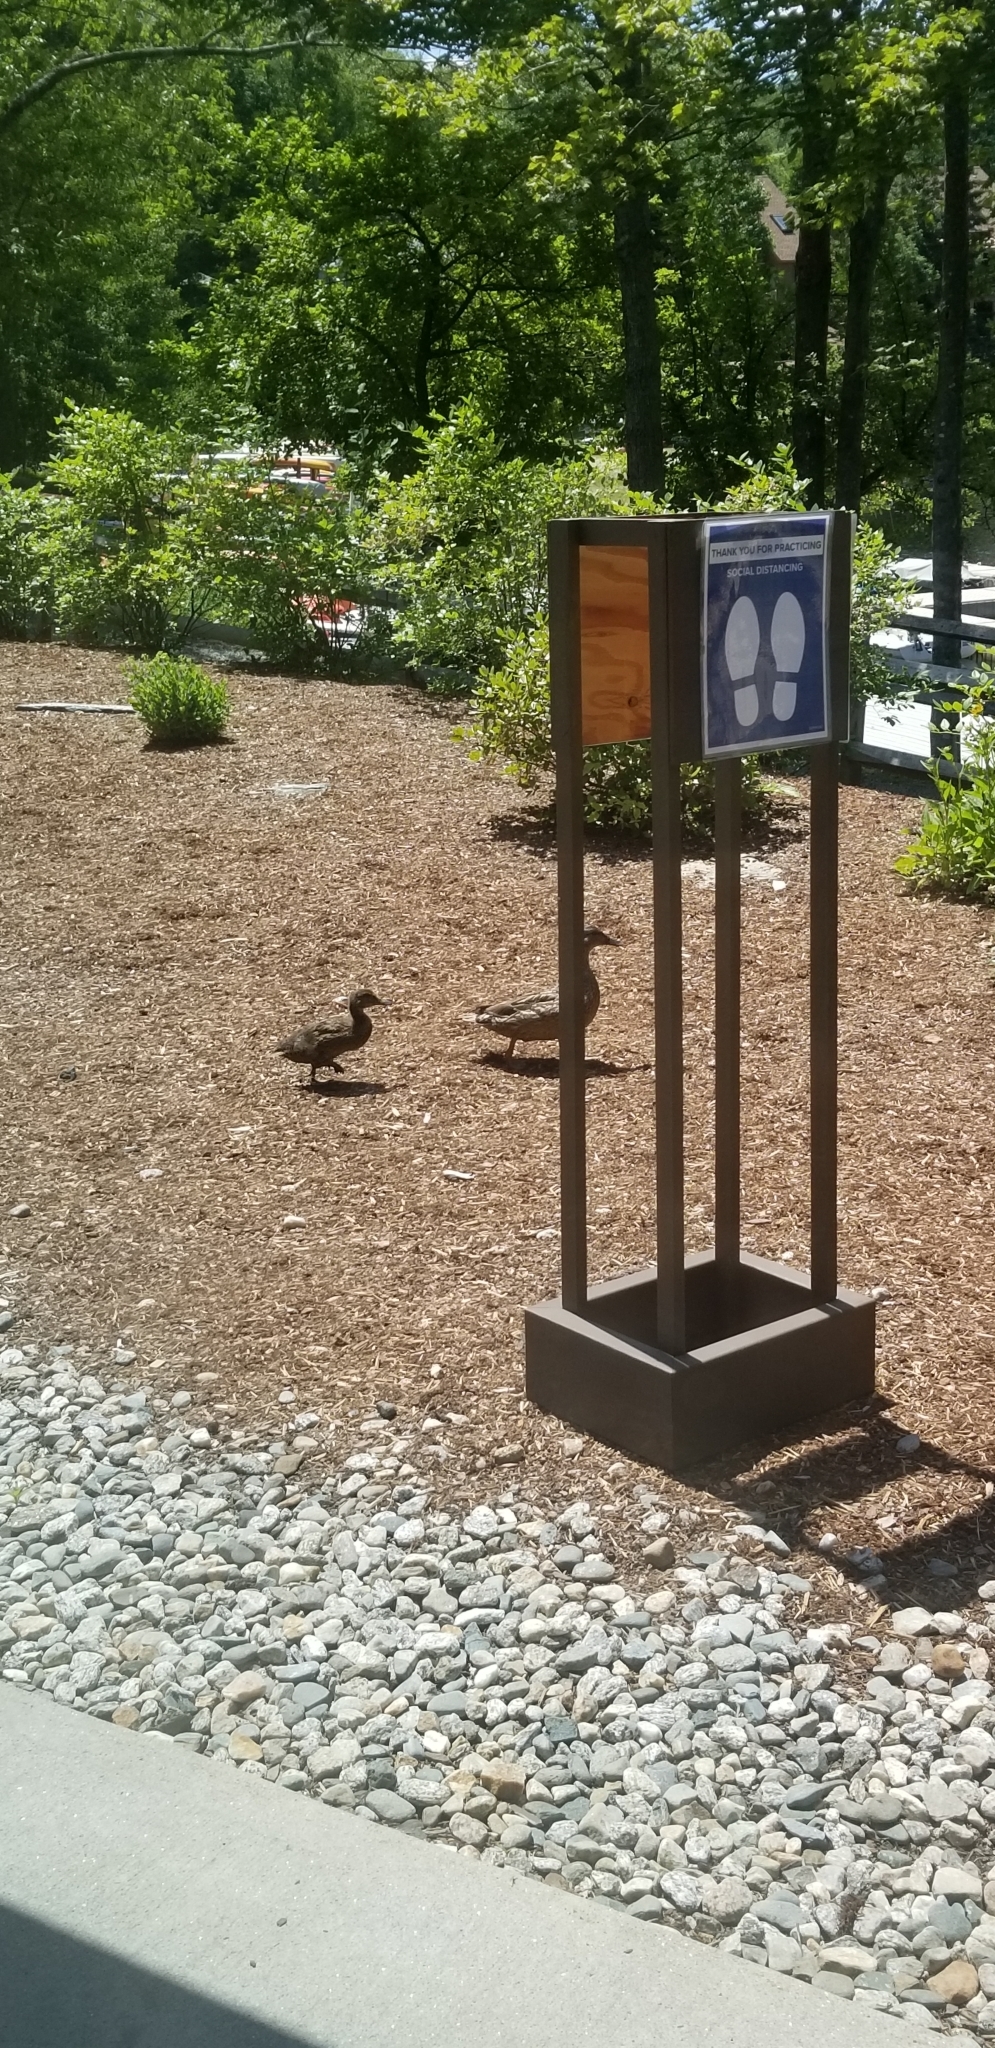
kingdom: Animalia
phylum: Chordata
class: Aves
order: Anseriformes
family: Anatidae
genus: Anas
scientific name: Anas platyrhynchos
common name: Mallard
